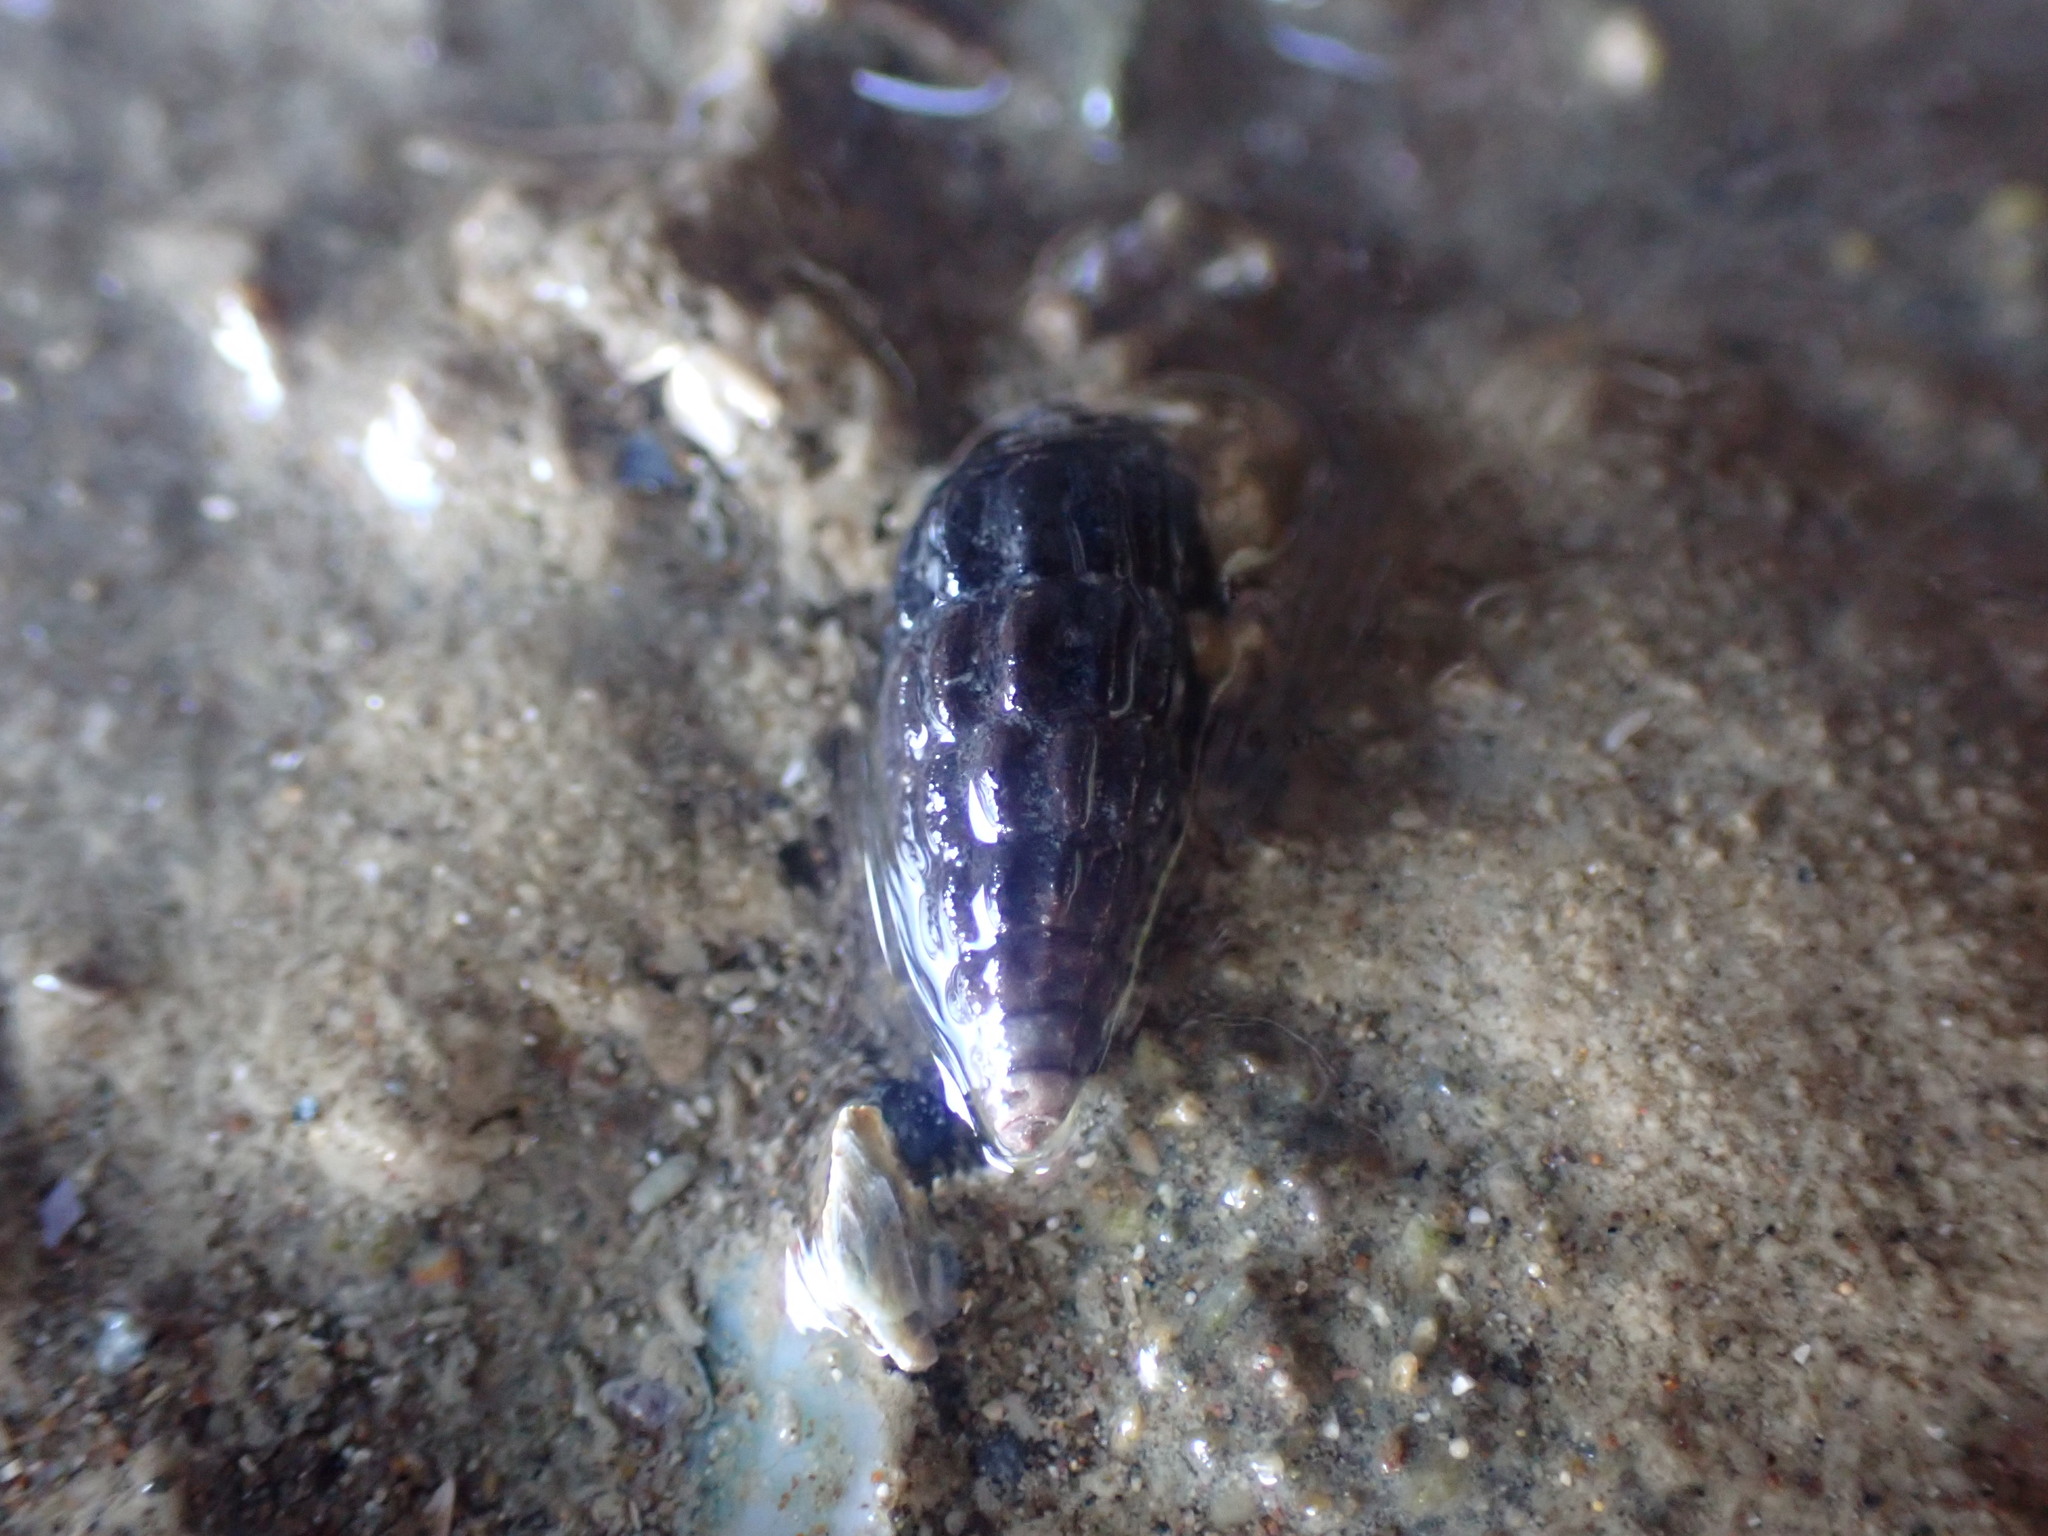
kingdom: Animalia
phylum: Mollusca
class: Gastropoda
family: Batillariidae
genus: Zeacumantus
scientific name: Zeacumantus subcarinatus
